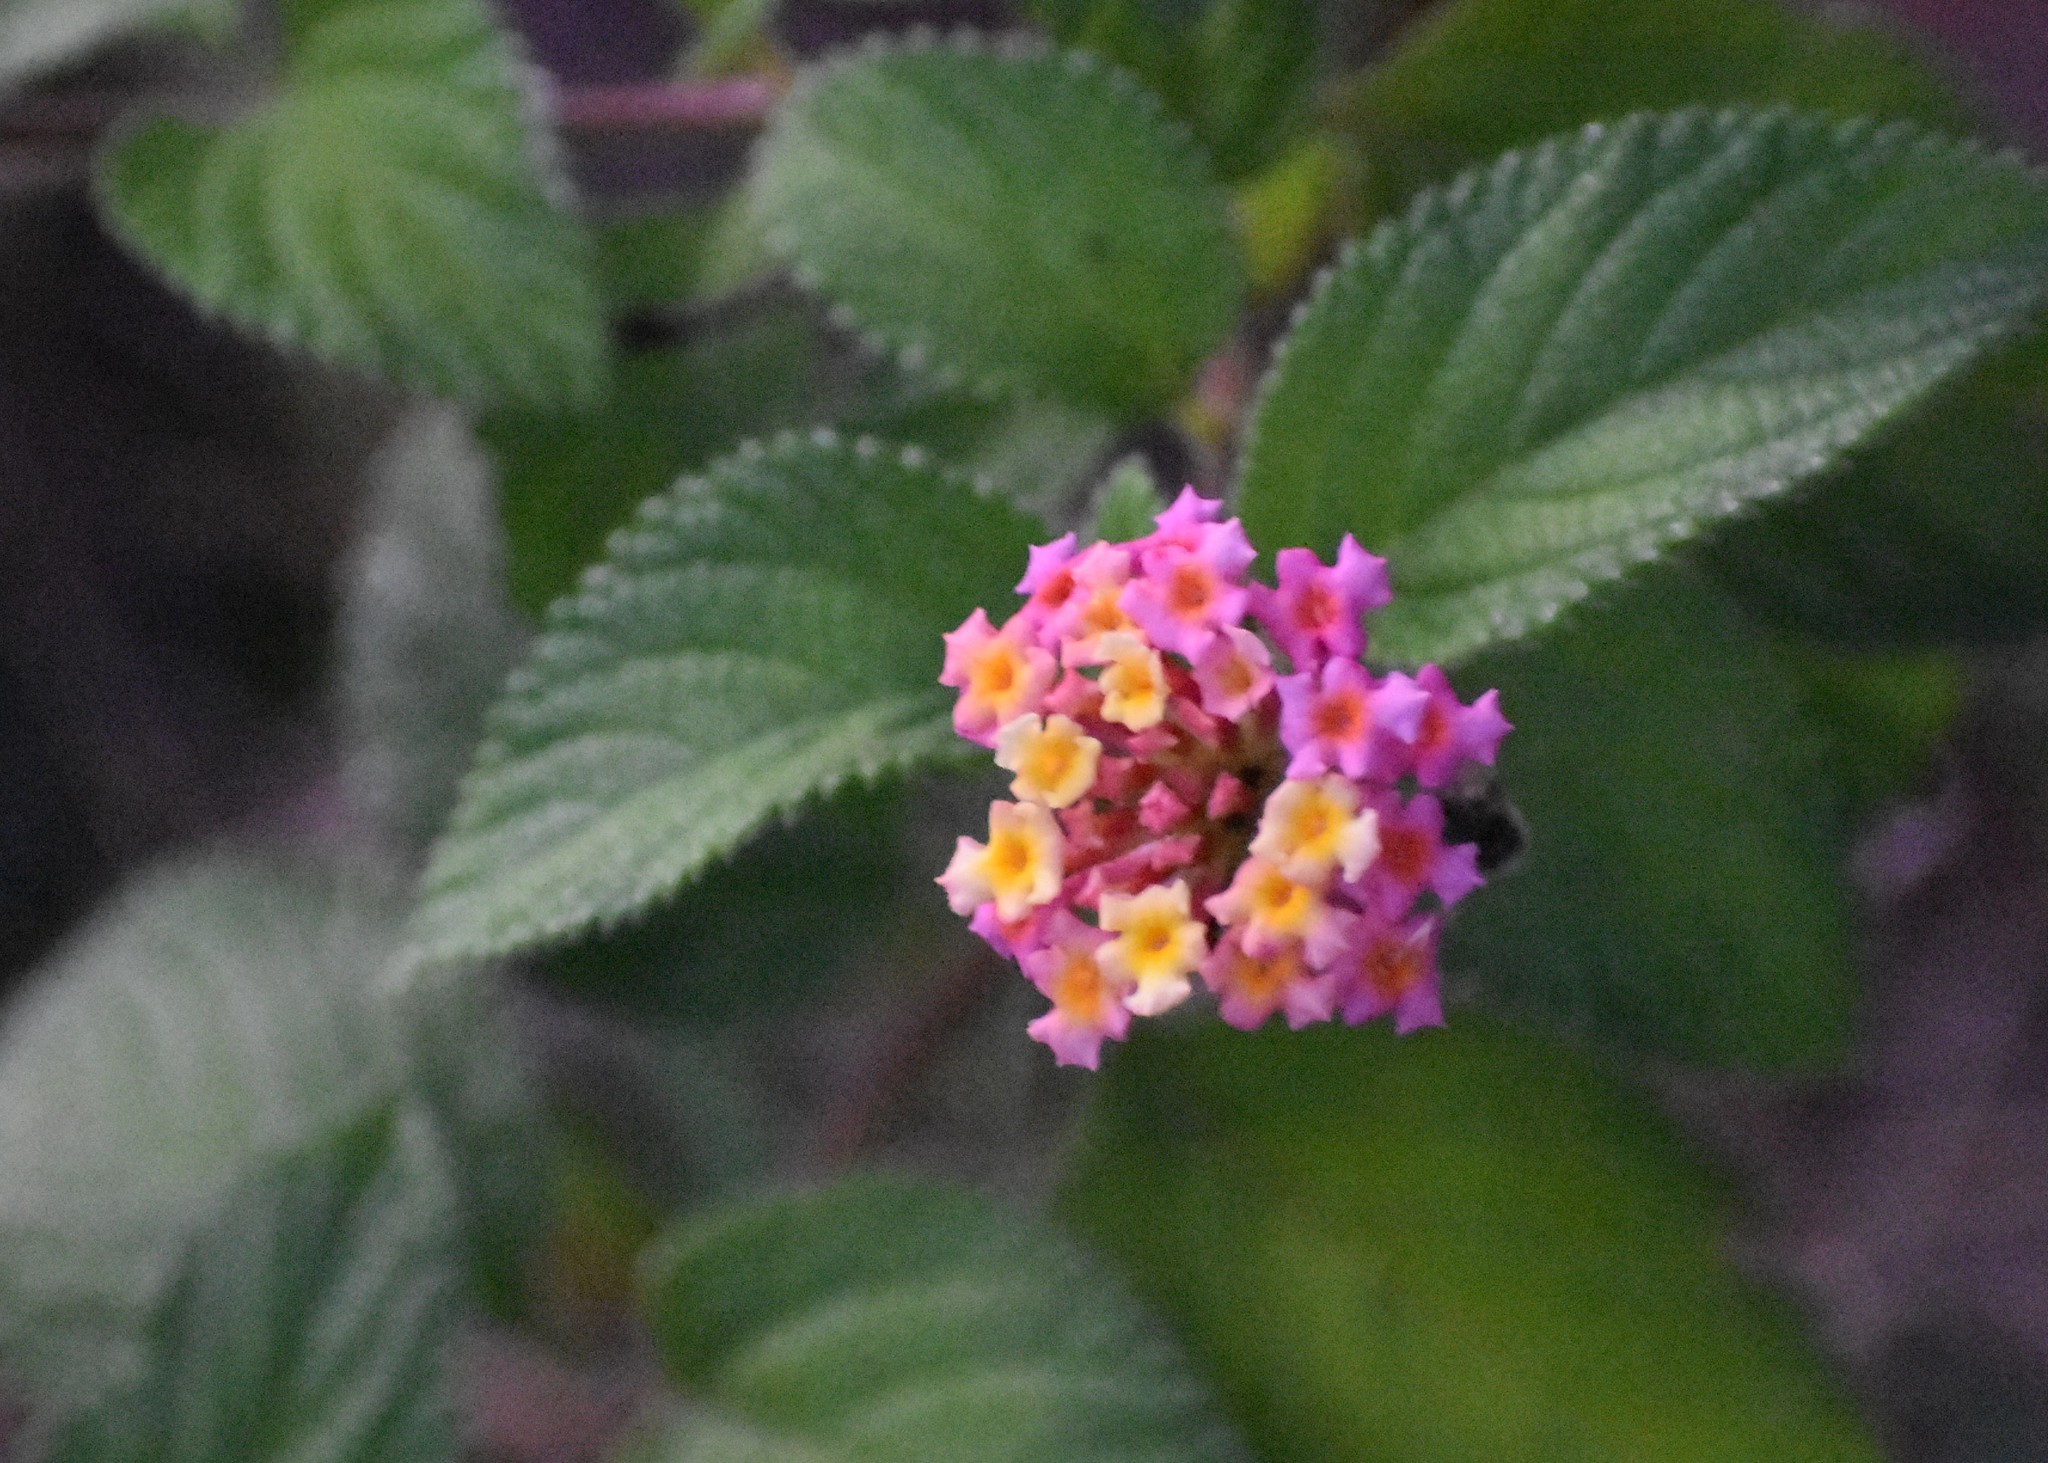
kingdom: Plantae
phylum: Tracheophyta
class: Magnoliopsida
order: Lamiales
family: Verbenaceae
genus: Lantana
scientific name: Lantana camara
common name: Lantana
